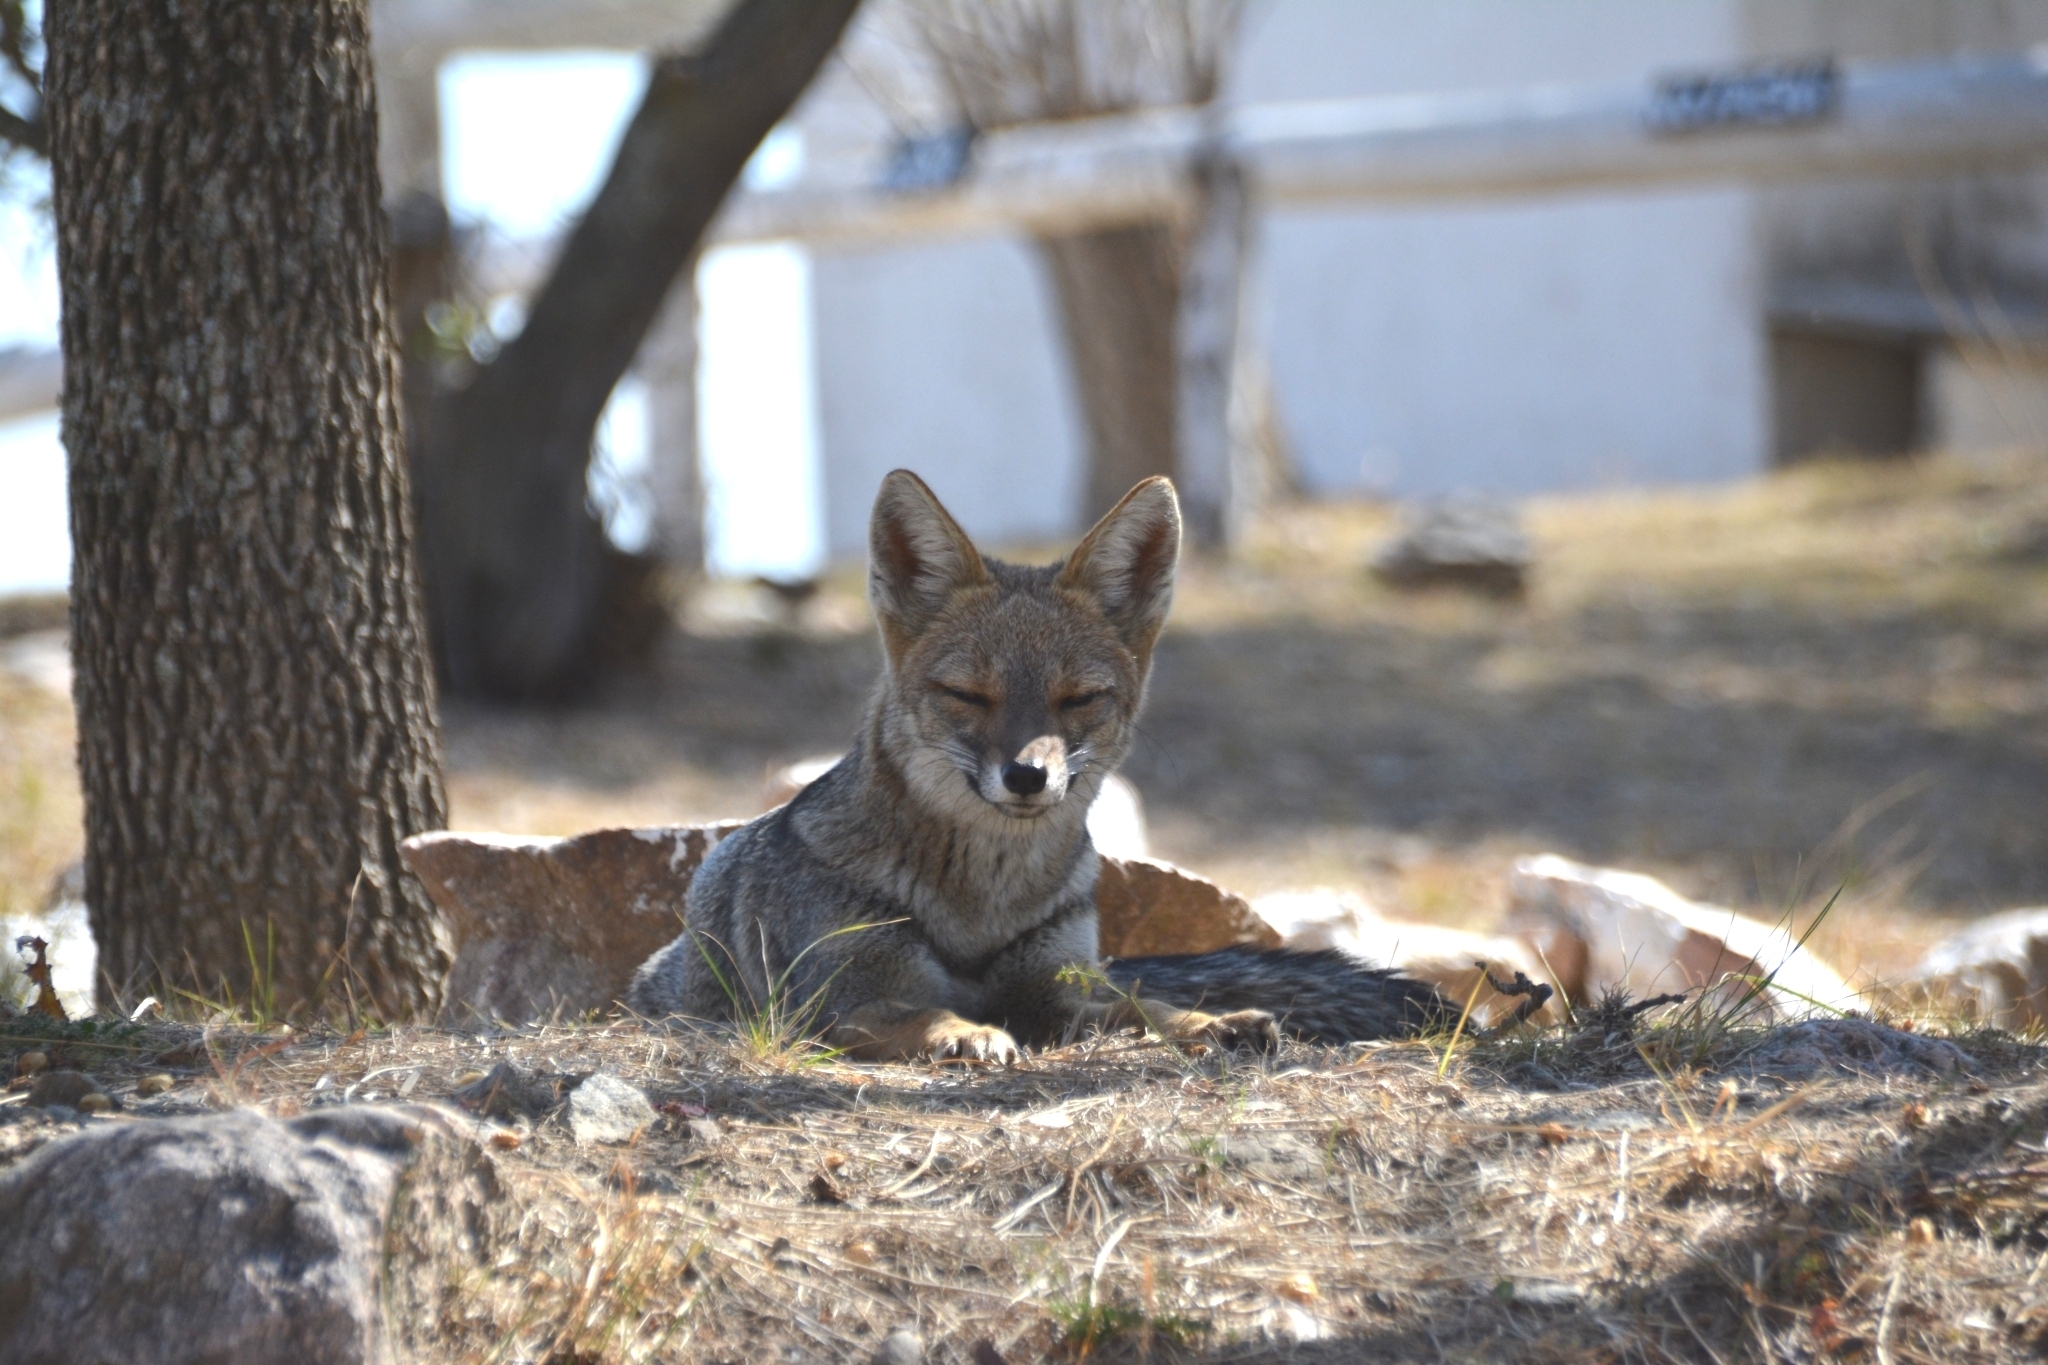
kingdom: Animalia
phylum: Chordata
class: Mammalia
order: Carnivora
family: Canidae
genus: Lycalopex
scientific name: Lycalopex gymnocercus
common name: Pampas fox
